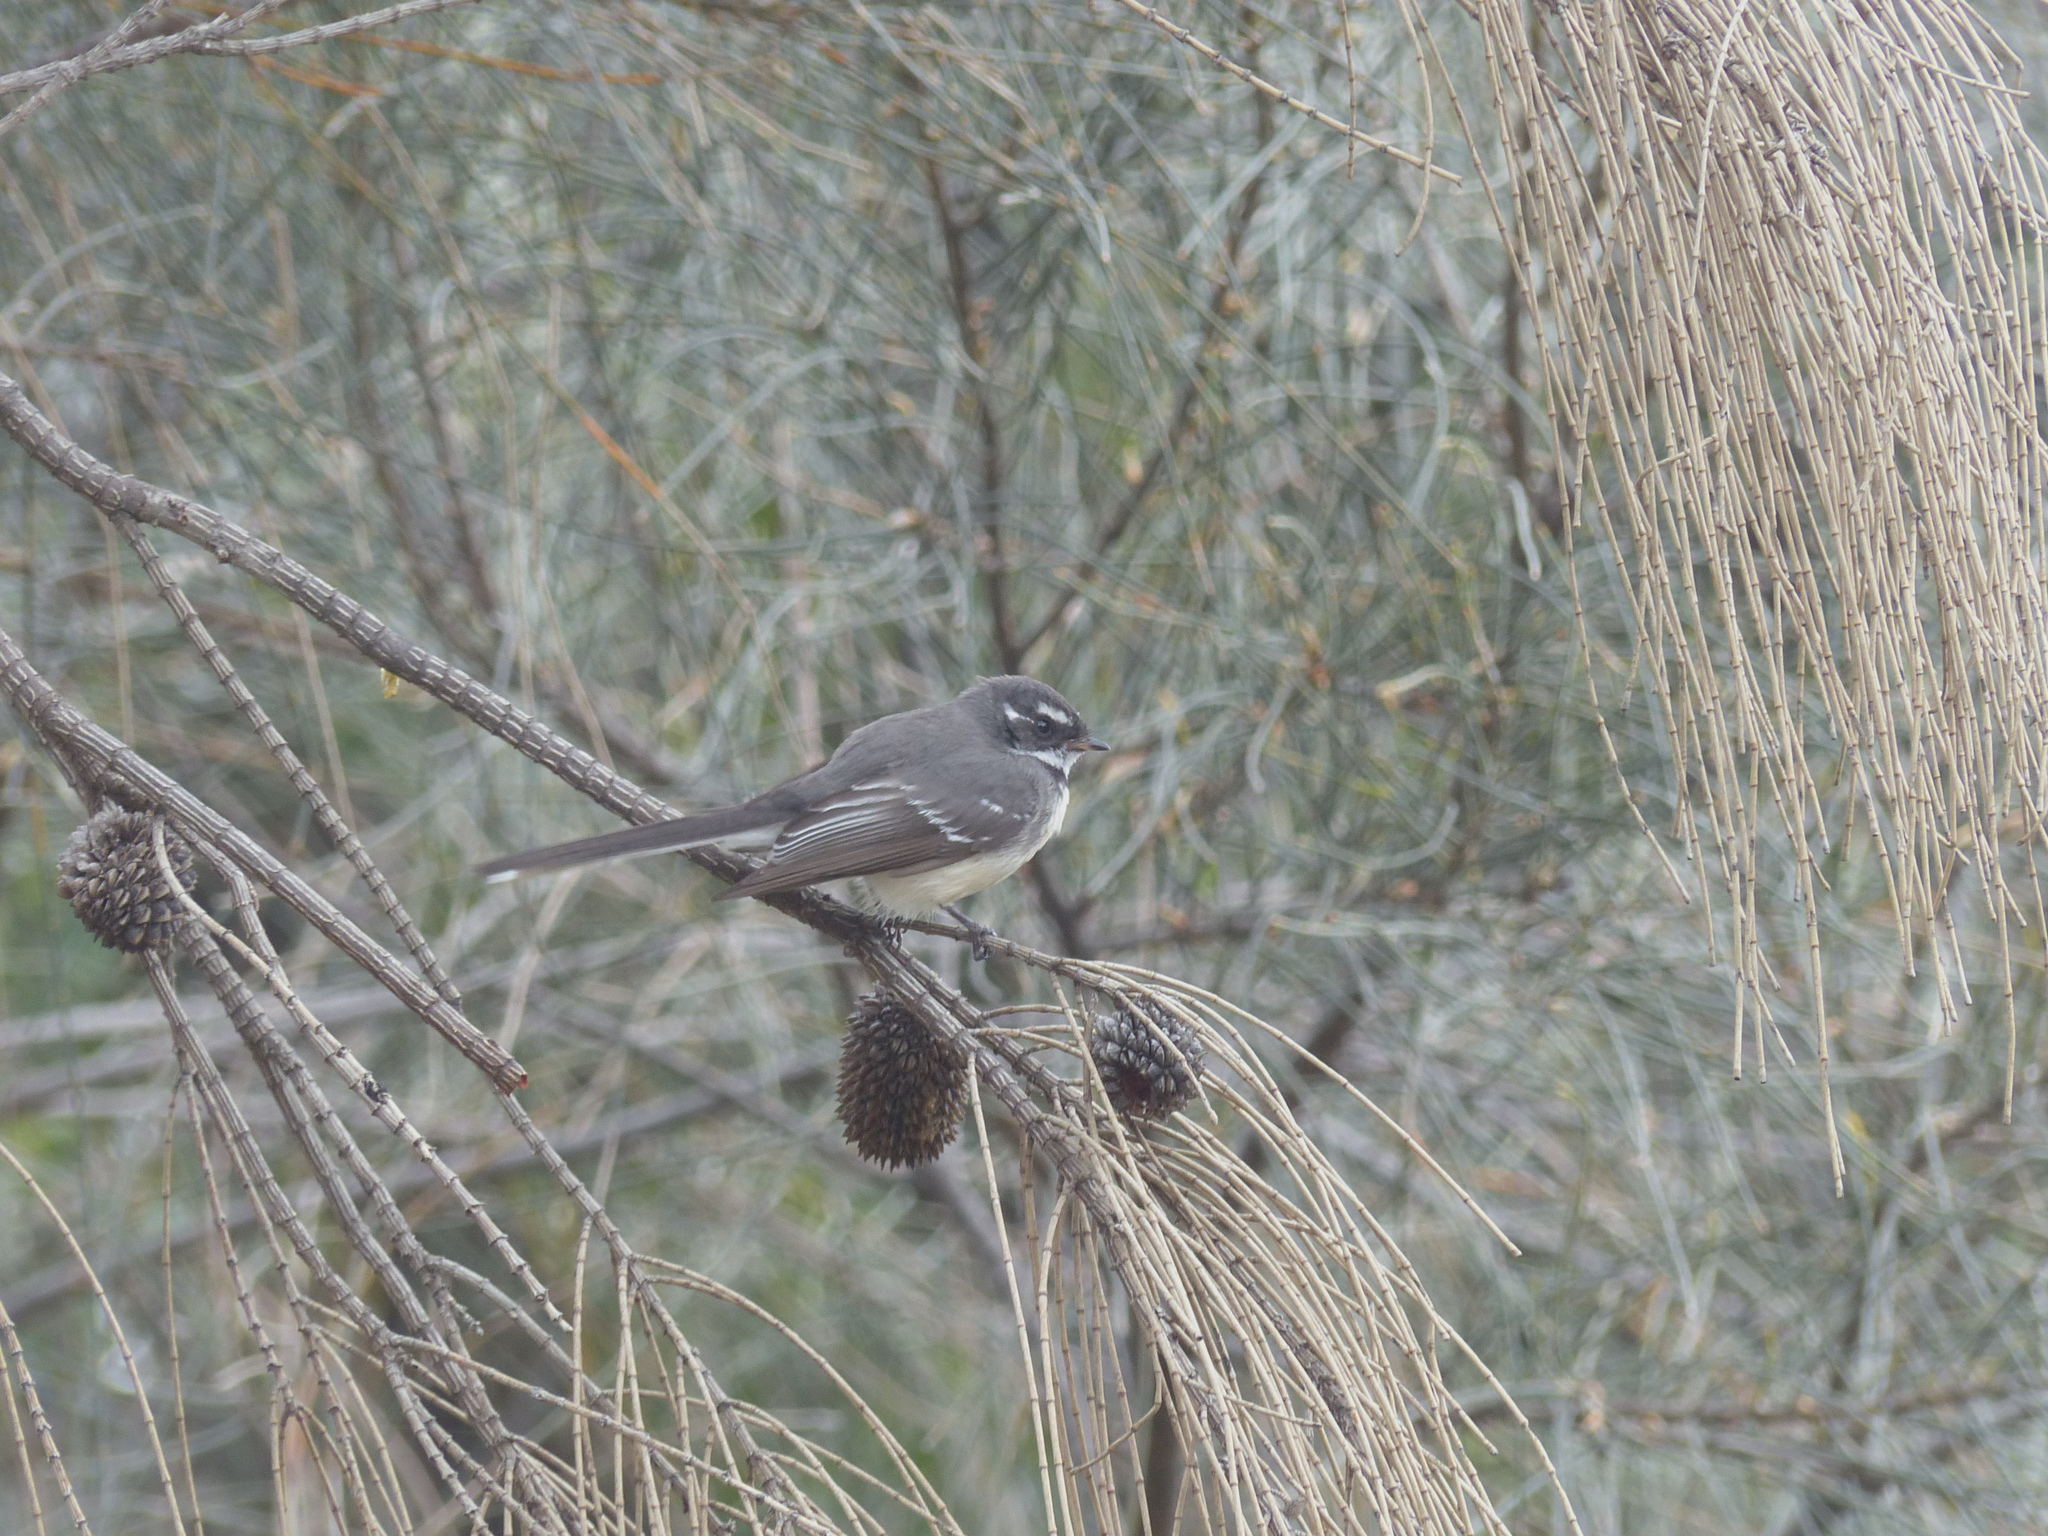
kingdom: Animalia
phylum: Chordata
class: Aves
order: Passeriformes
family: Rhipiduridae
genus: Rhipidura
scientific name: Rhipidura albiscapa
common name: Grey fantail
